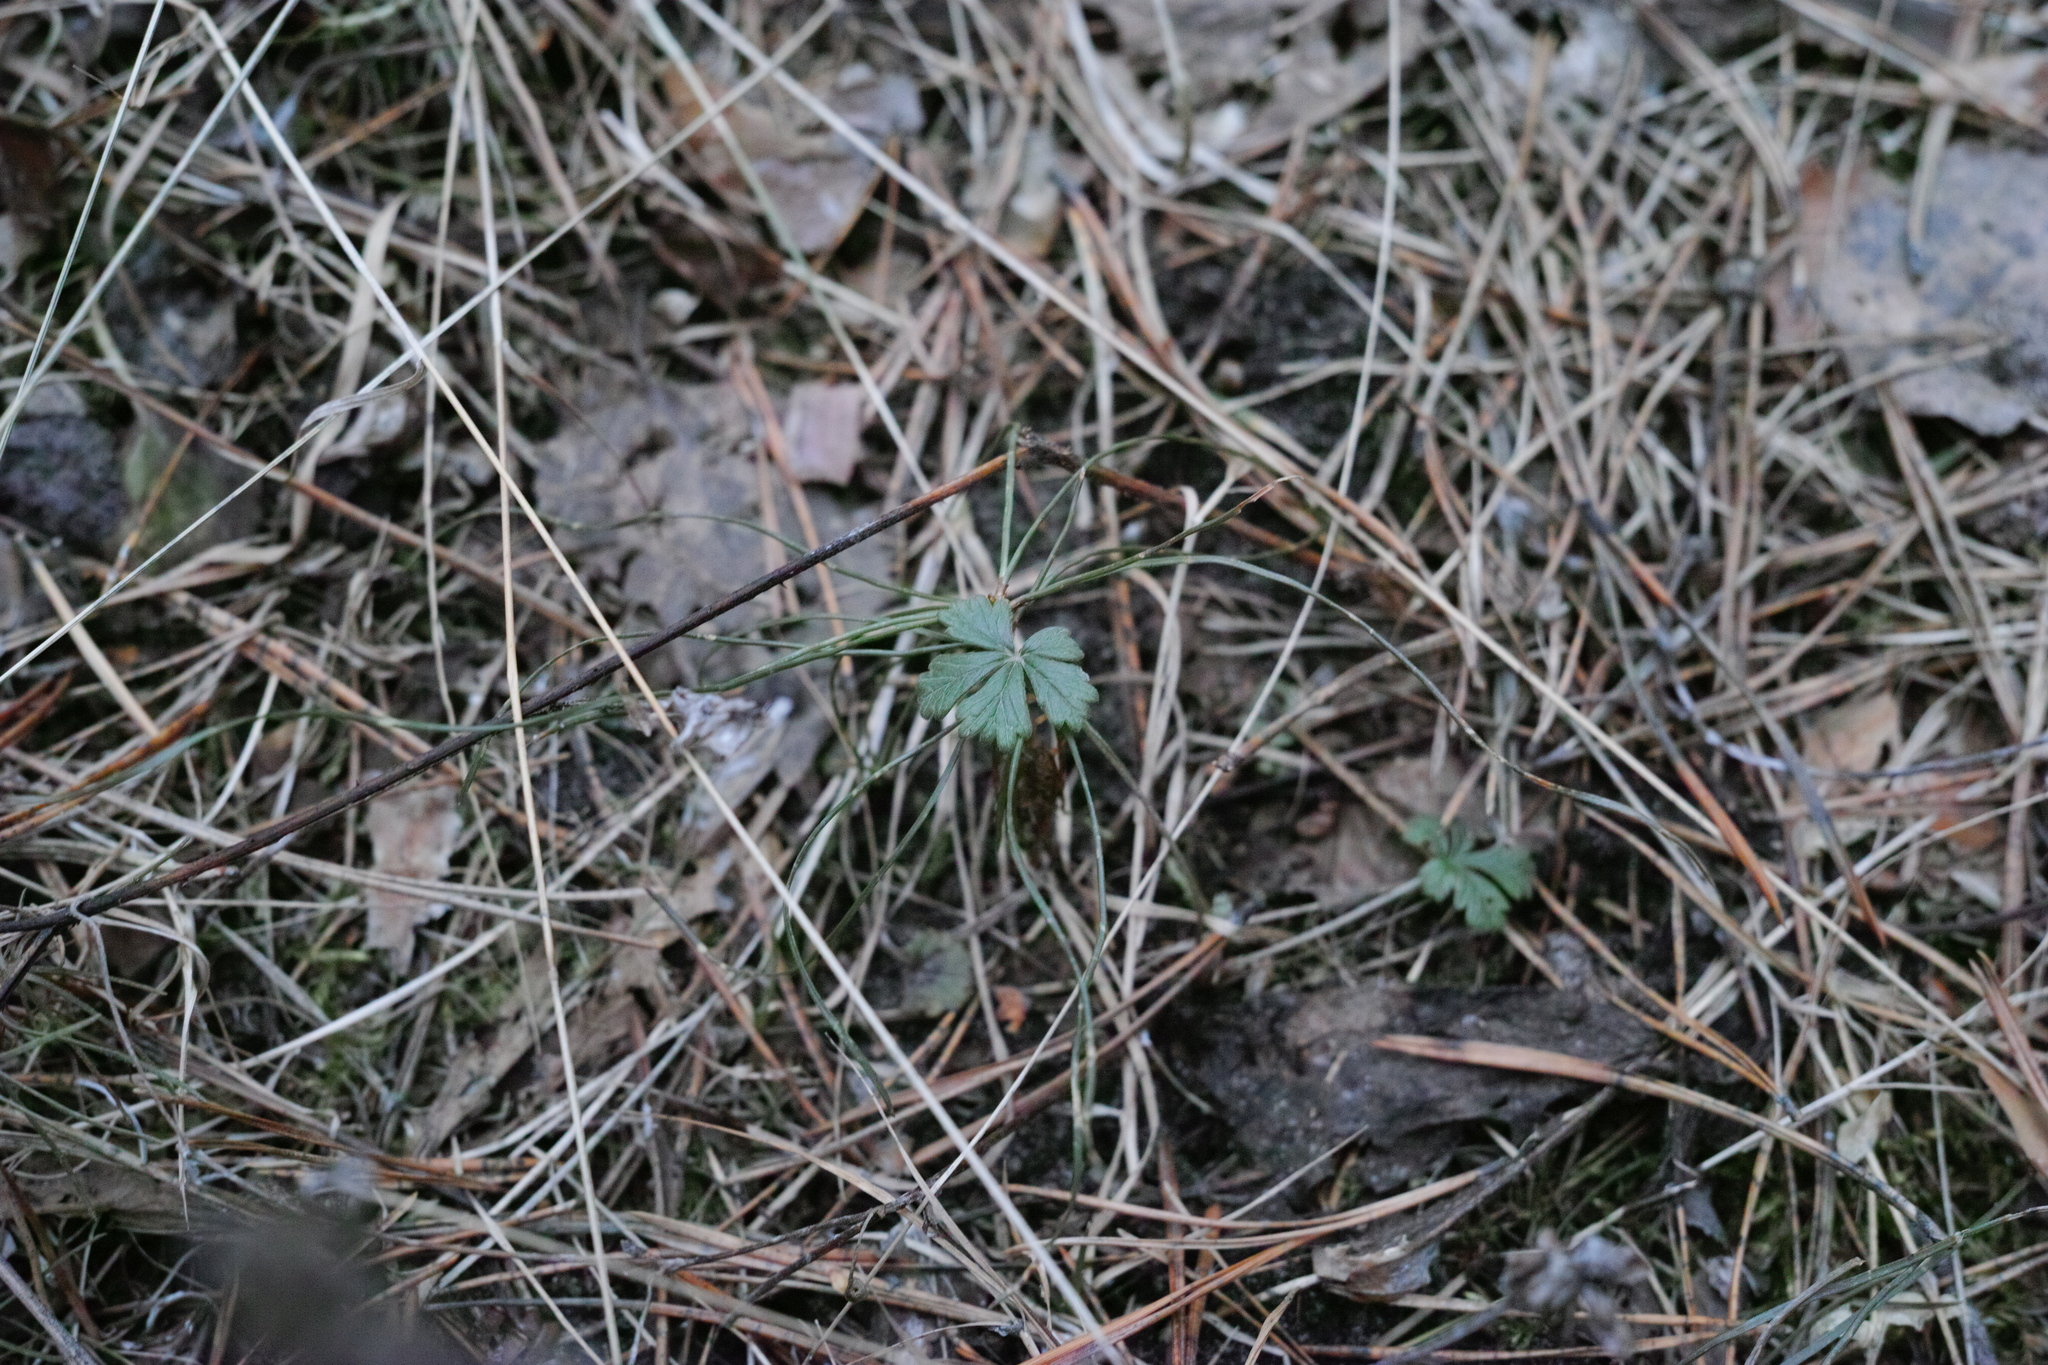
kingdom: Plantae
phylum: Tracheophyta
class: Magnoliopsida
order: Rosales
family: Rosaceae
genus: Potentilla
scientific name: Potentilla argentea
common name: Hoary cinquefoil
